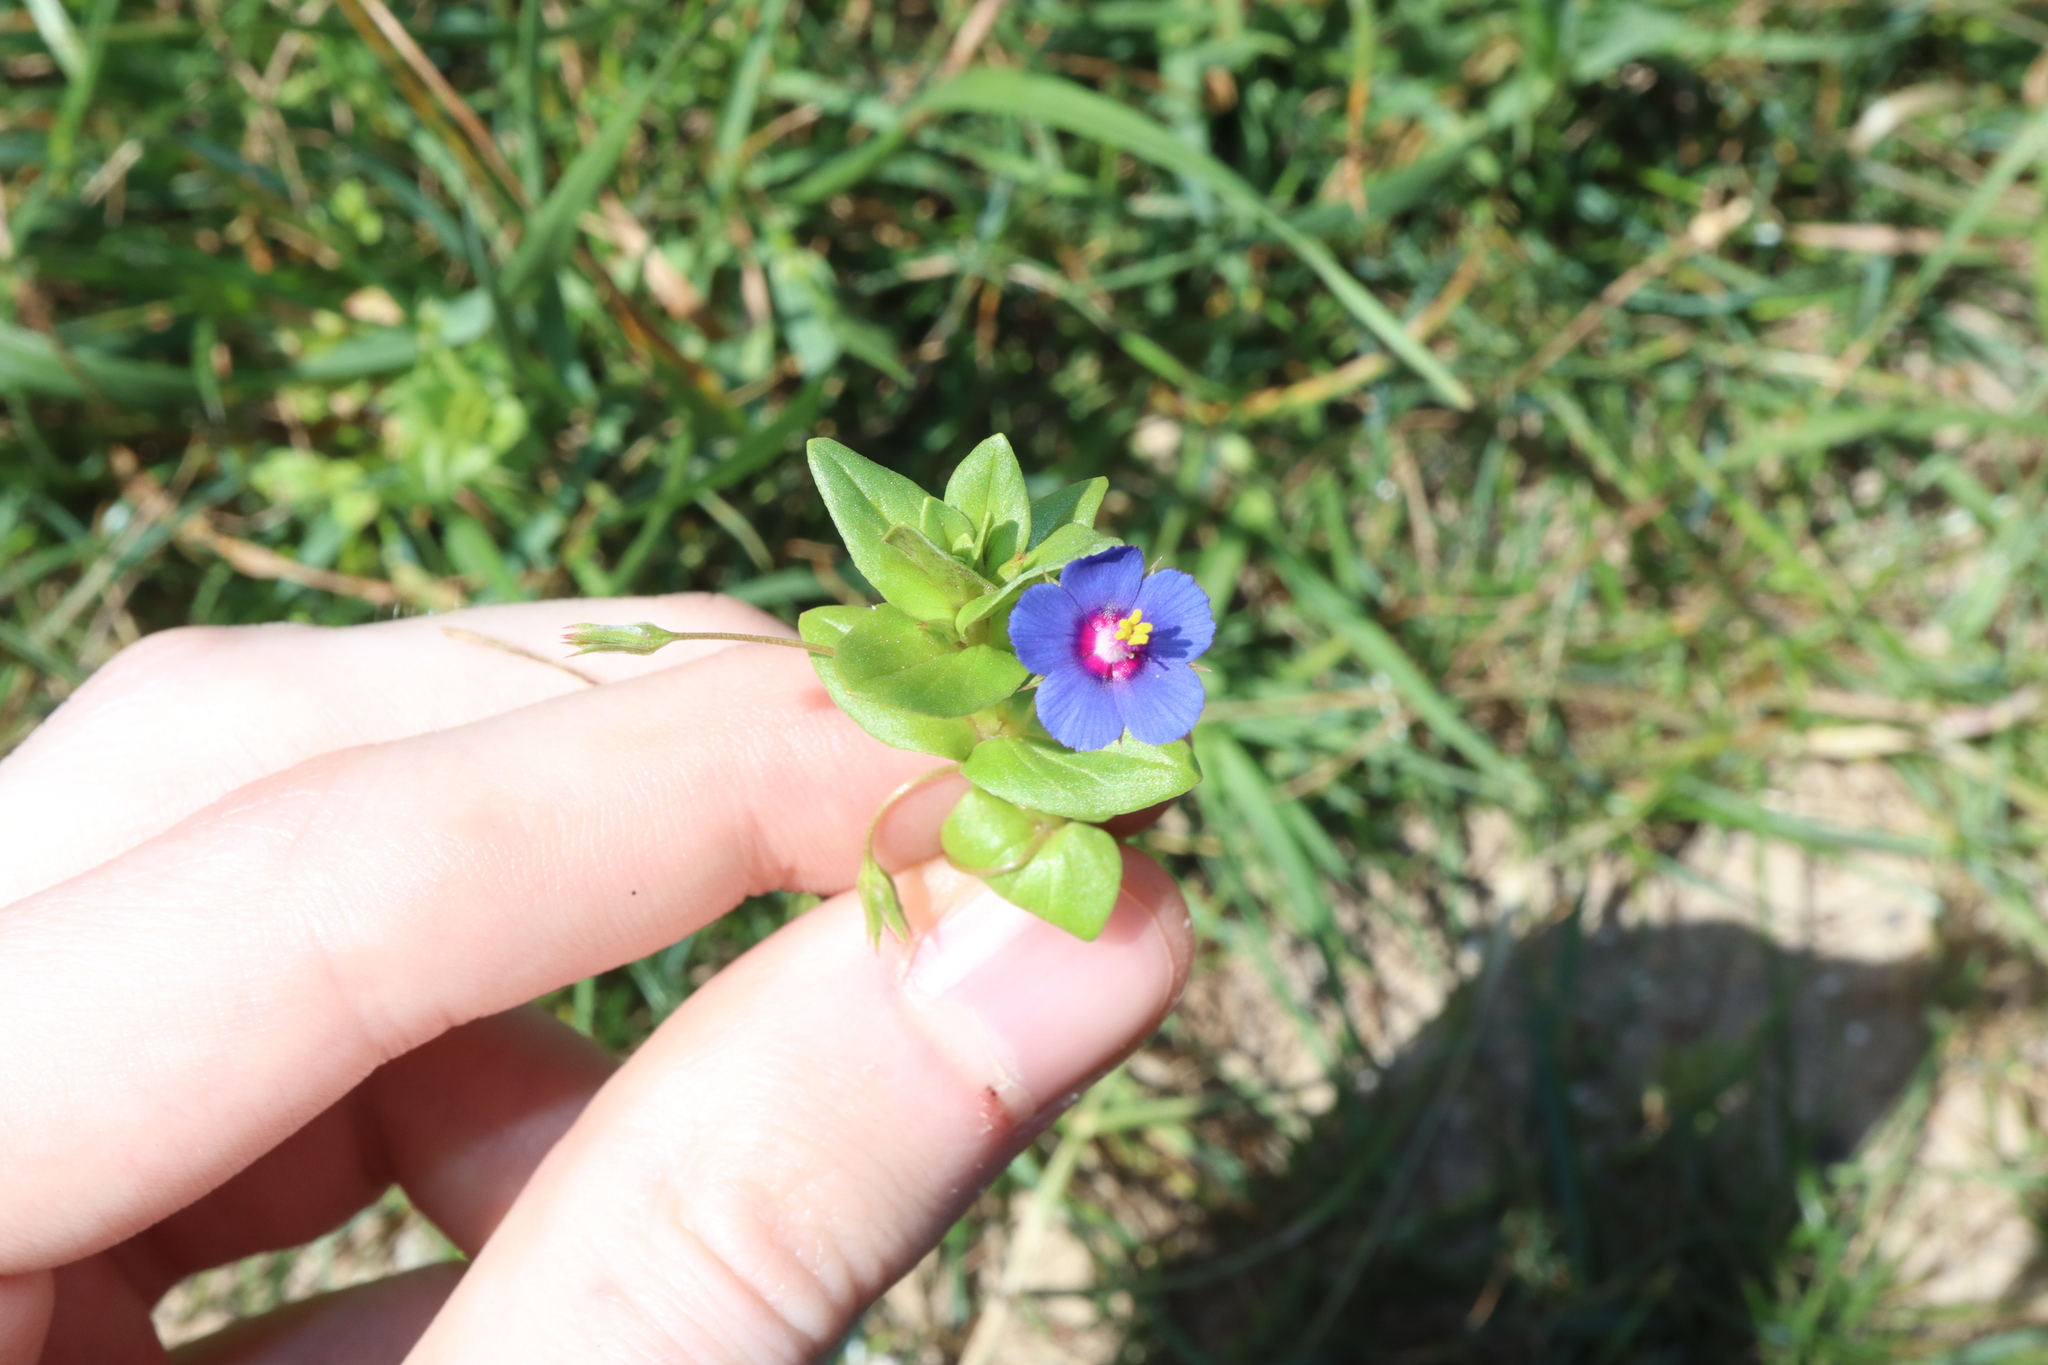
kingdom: Plantae
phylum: Tracheophyta
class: Magnoliopsida
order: Ericales
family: Primulaceae
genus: Lysimachia
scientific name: Lysimachia loeflingii
